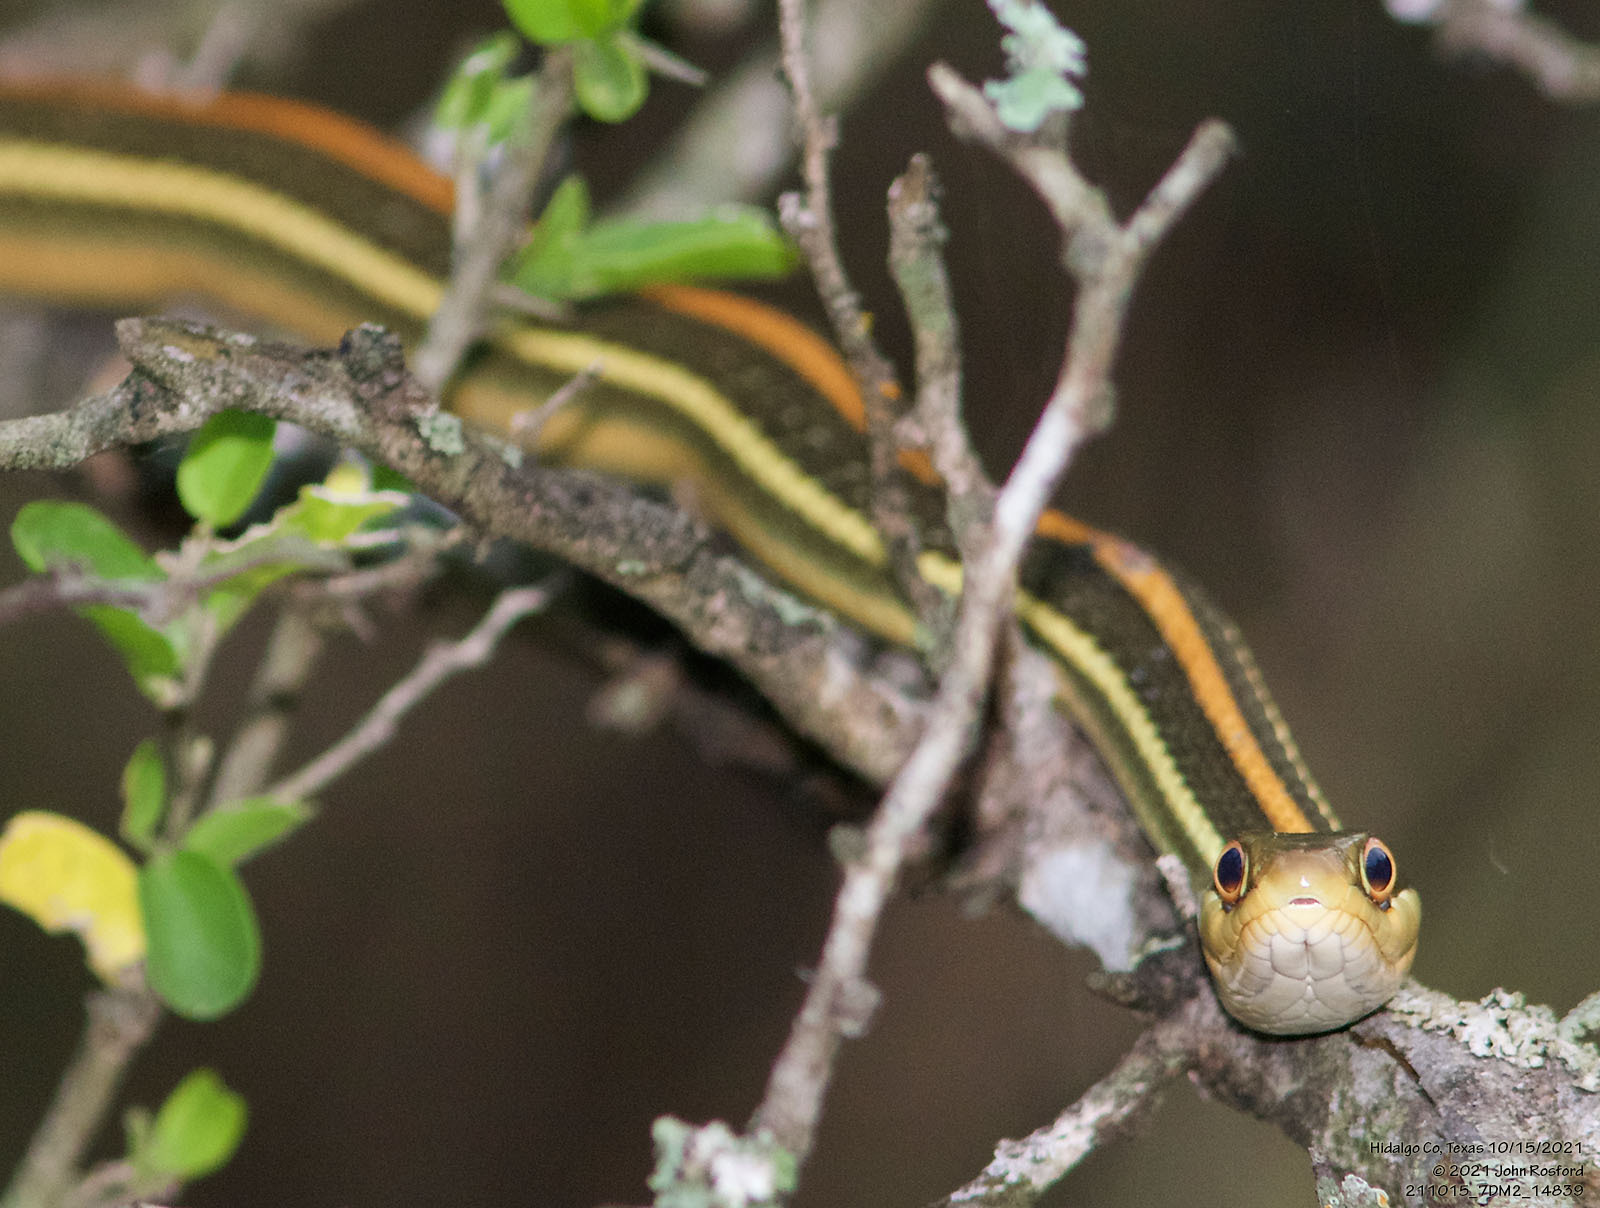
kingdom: Animalia
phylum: Chordata
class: Squamata
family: Colubridae
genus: Thamnophis
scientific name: Thamnophis proximus
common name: Western ribbon snake
